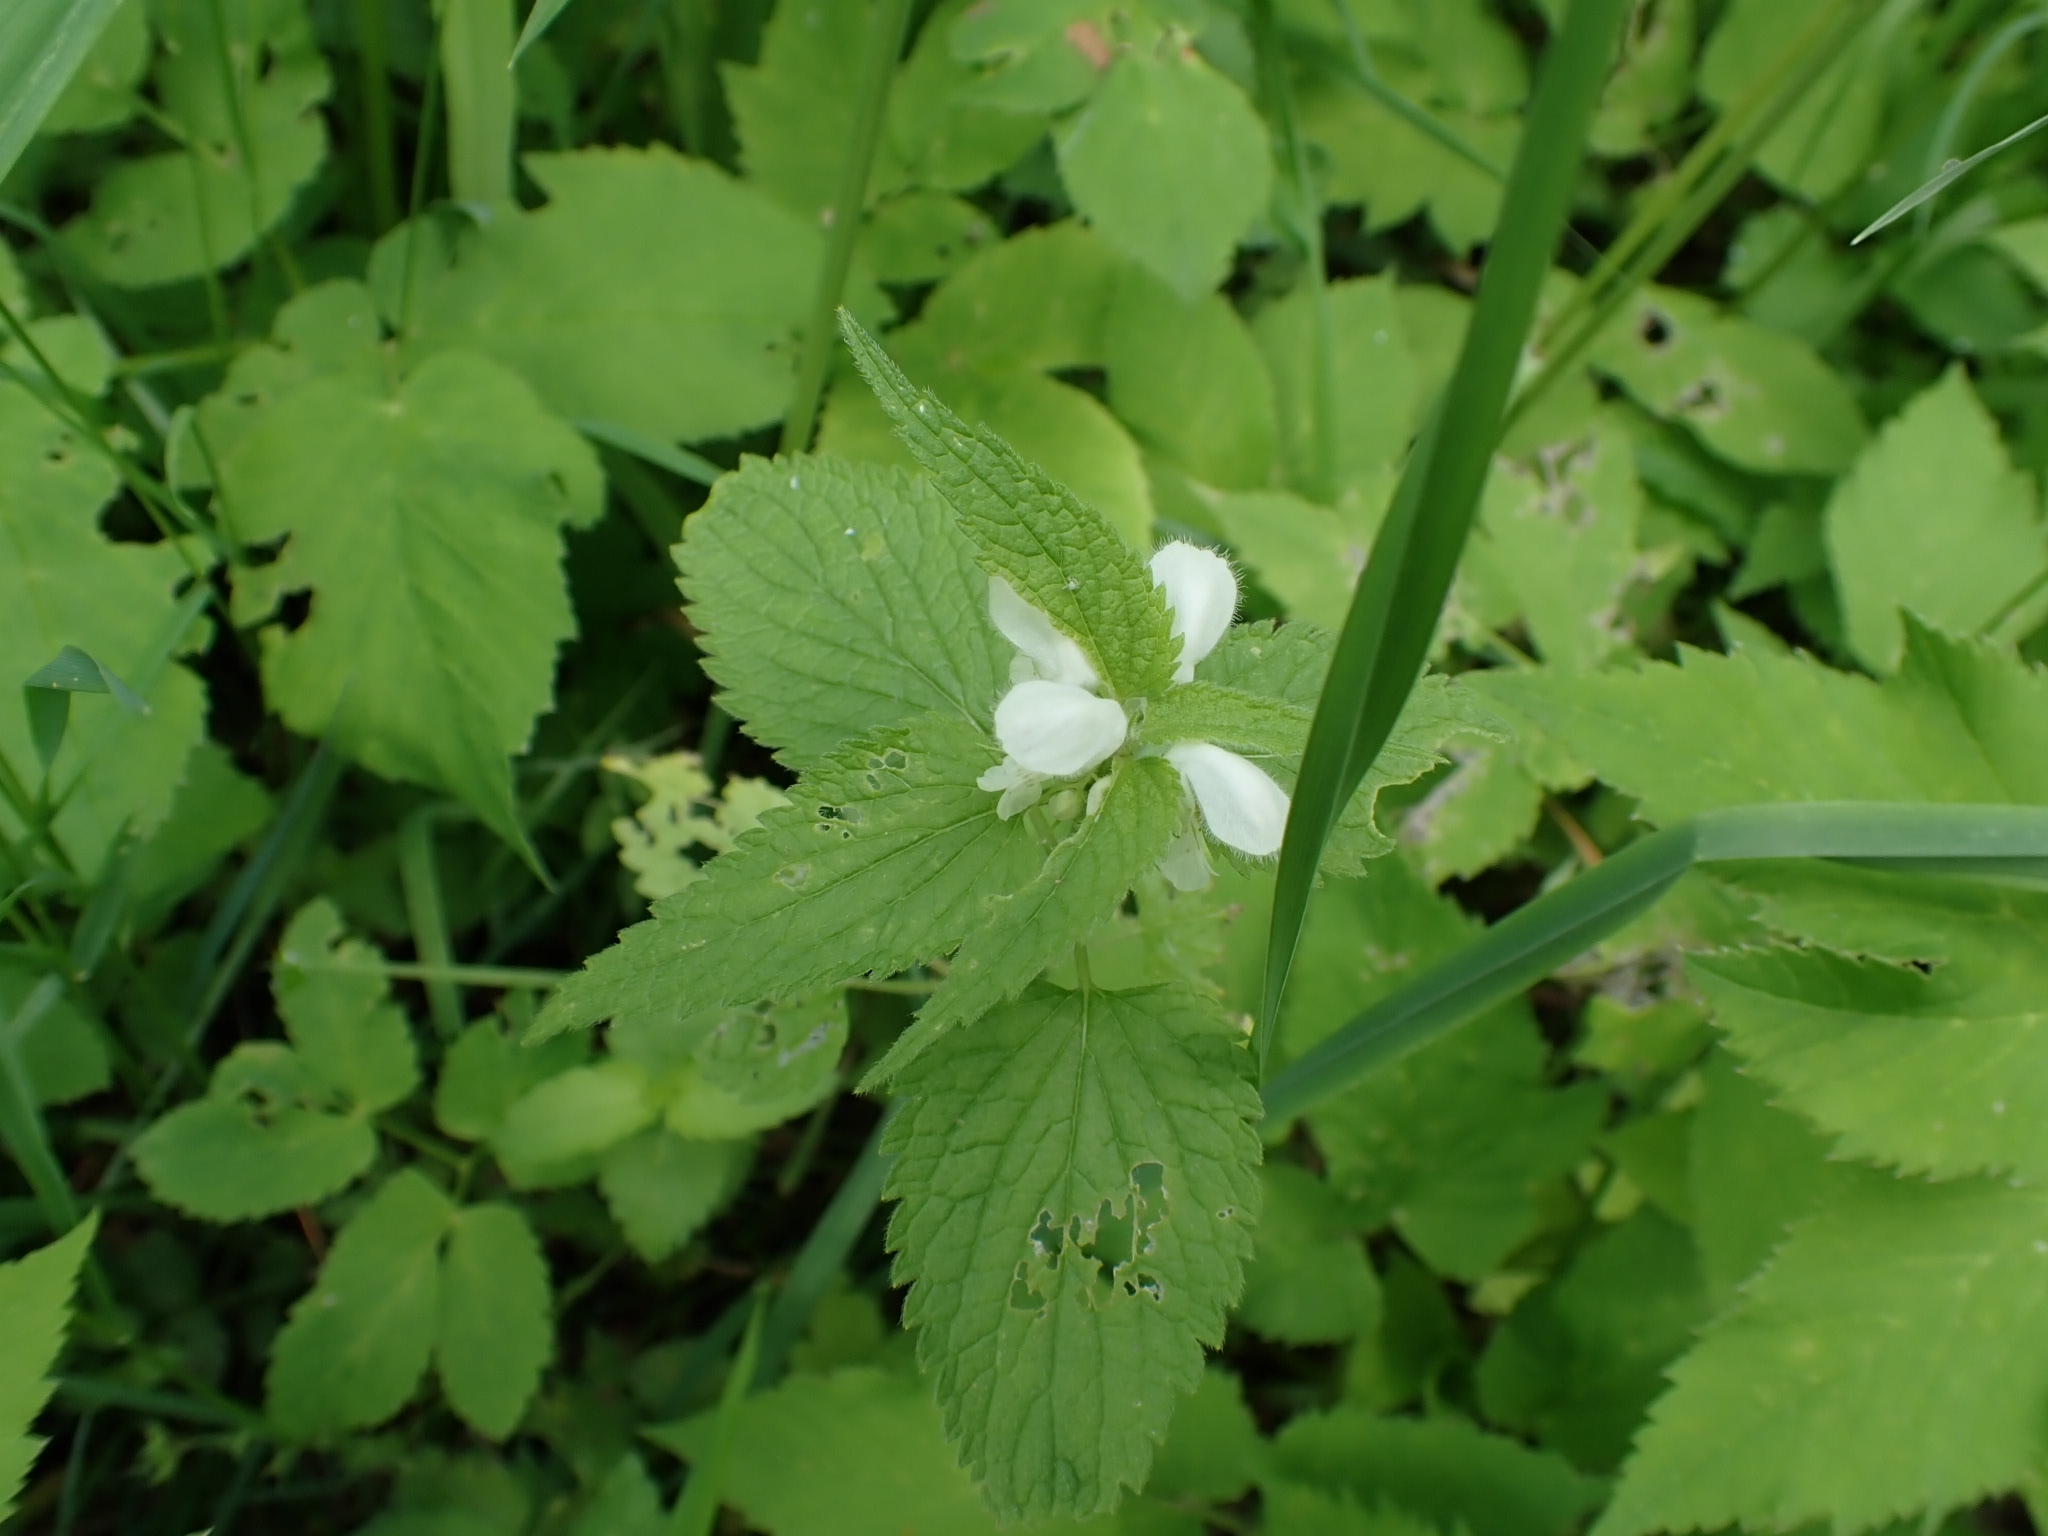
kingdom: Plantae
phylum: Tracheophyta
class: Magnoliopsida
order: Lamiales
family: Lamiaceae
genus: Lamium
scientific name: Lamium album
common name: White dead-nettle
